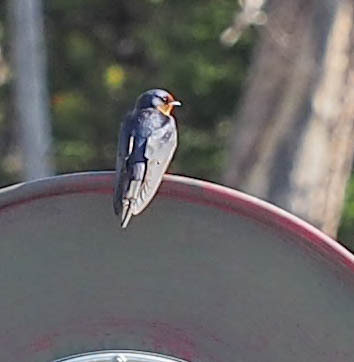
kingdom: Animalia
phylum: Chordata
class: Aves
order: Passeriformes
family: Hirundinidae
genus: Hirundo
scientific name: Hirundo rustica
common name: Barn swallow
